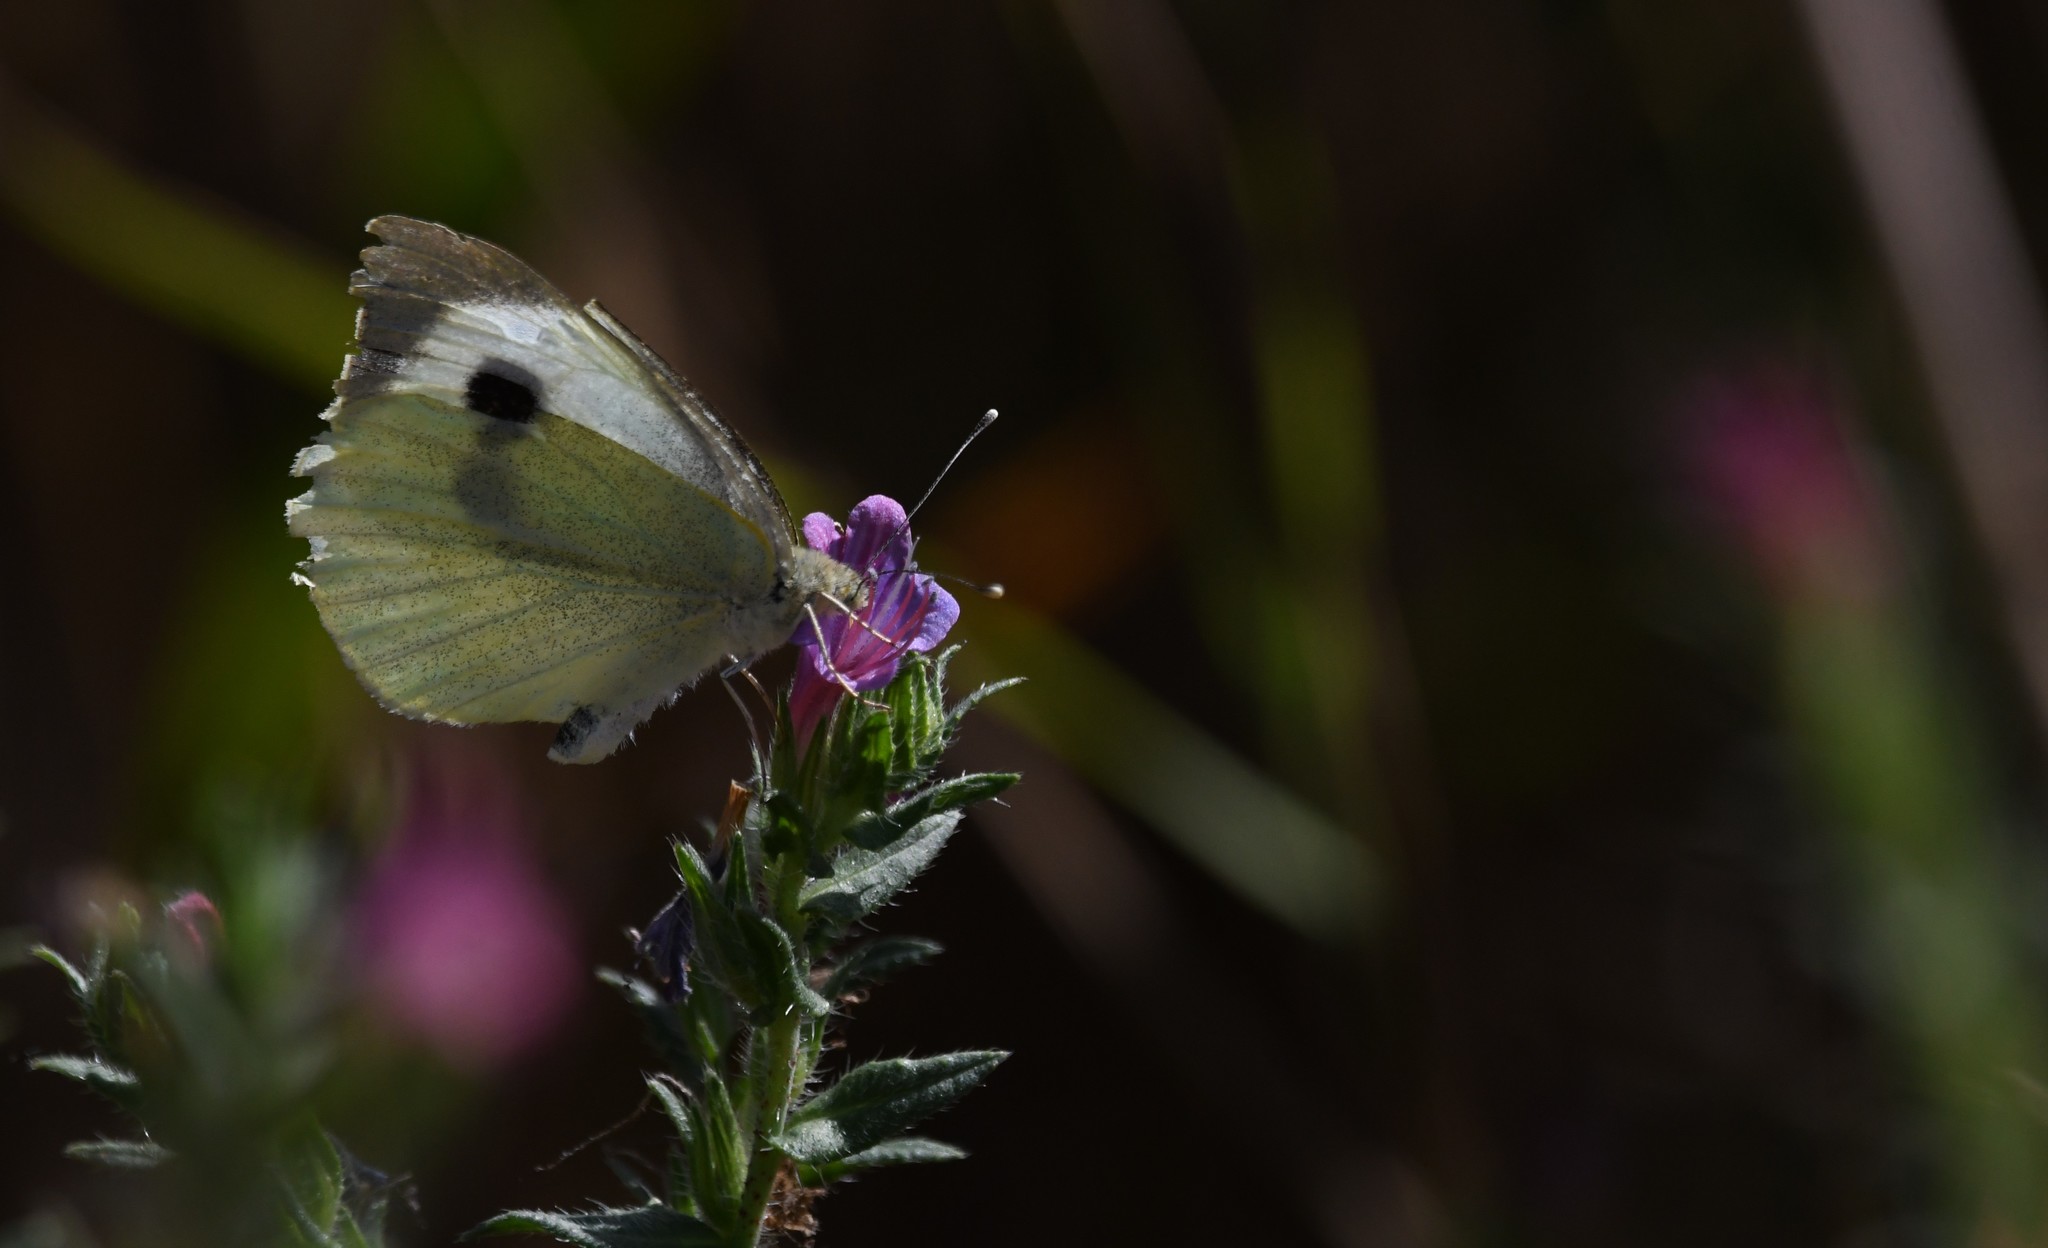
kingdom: Animalia
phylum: Arthropoda
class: Insecta
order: Lepidoptera
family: Pieridae
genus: Pieris
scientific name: Pieris brassicae
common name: Large white
